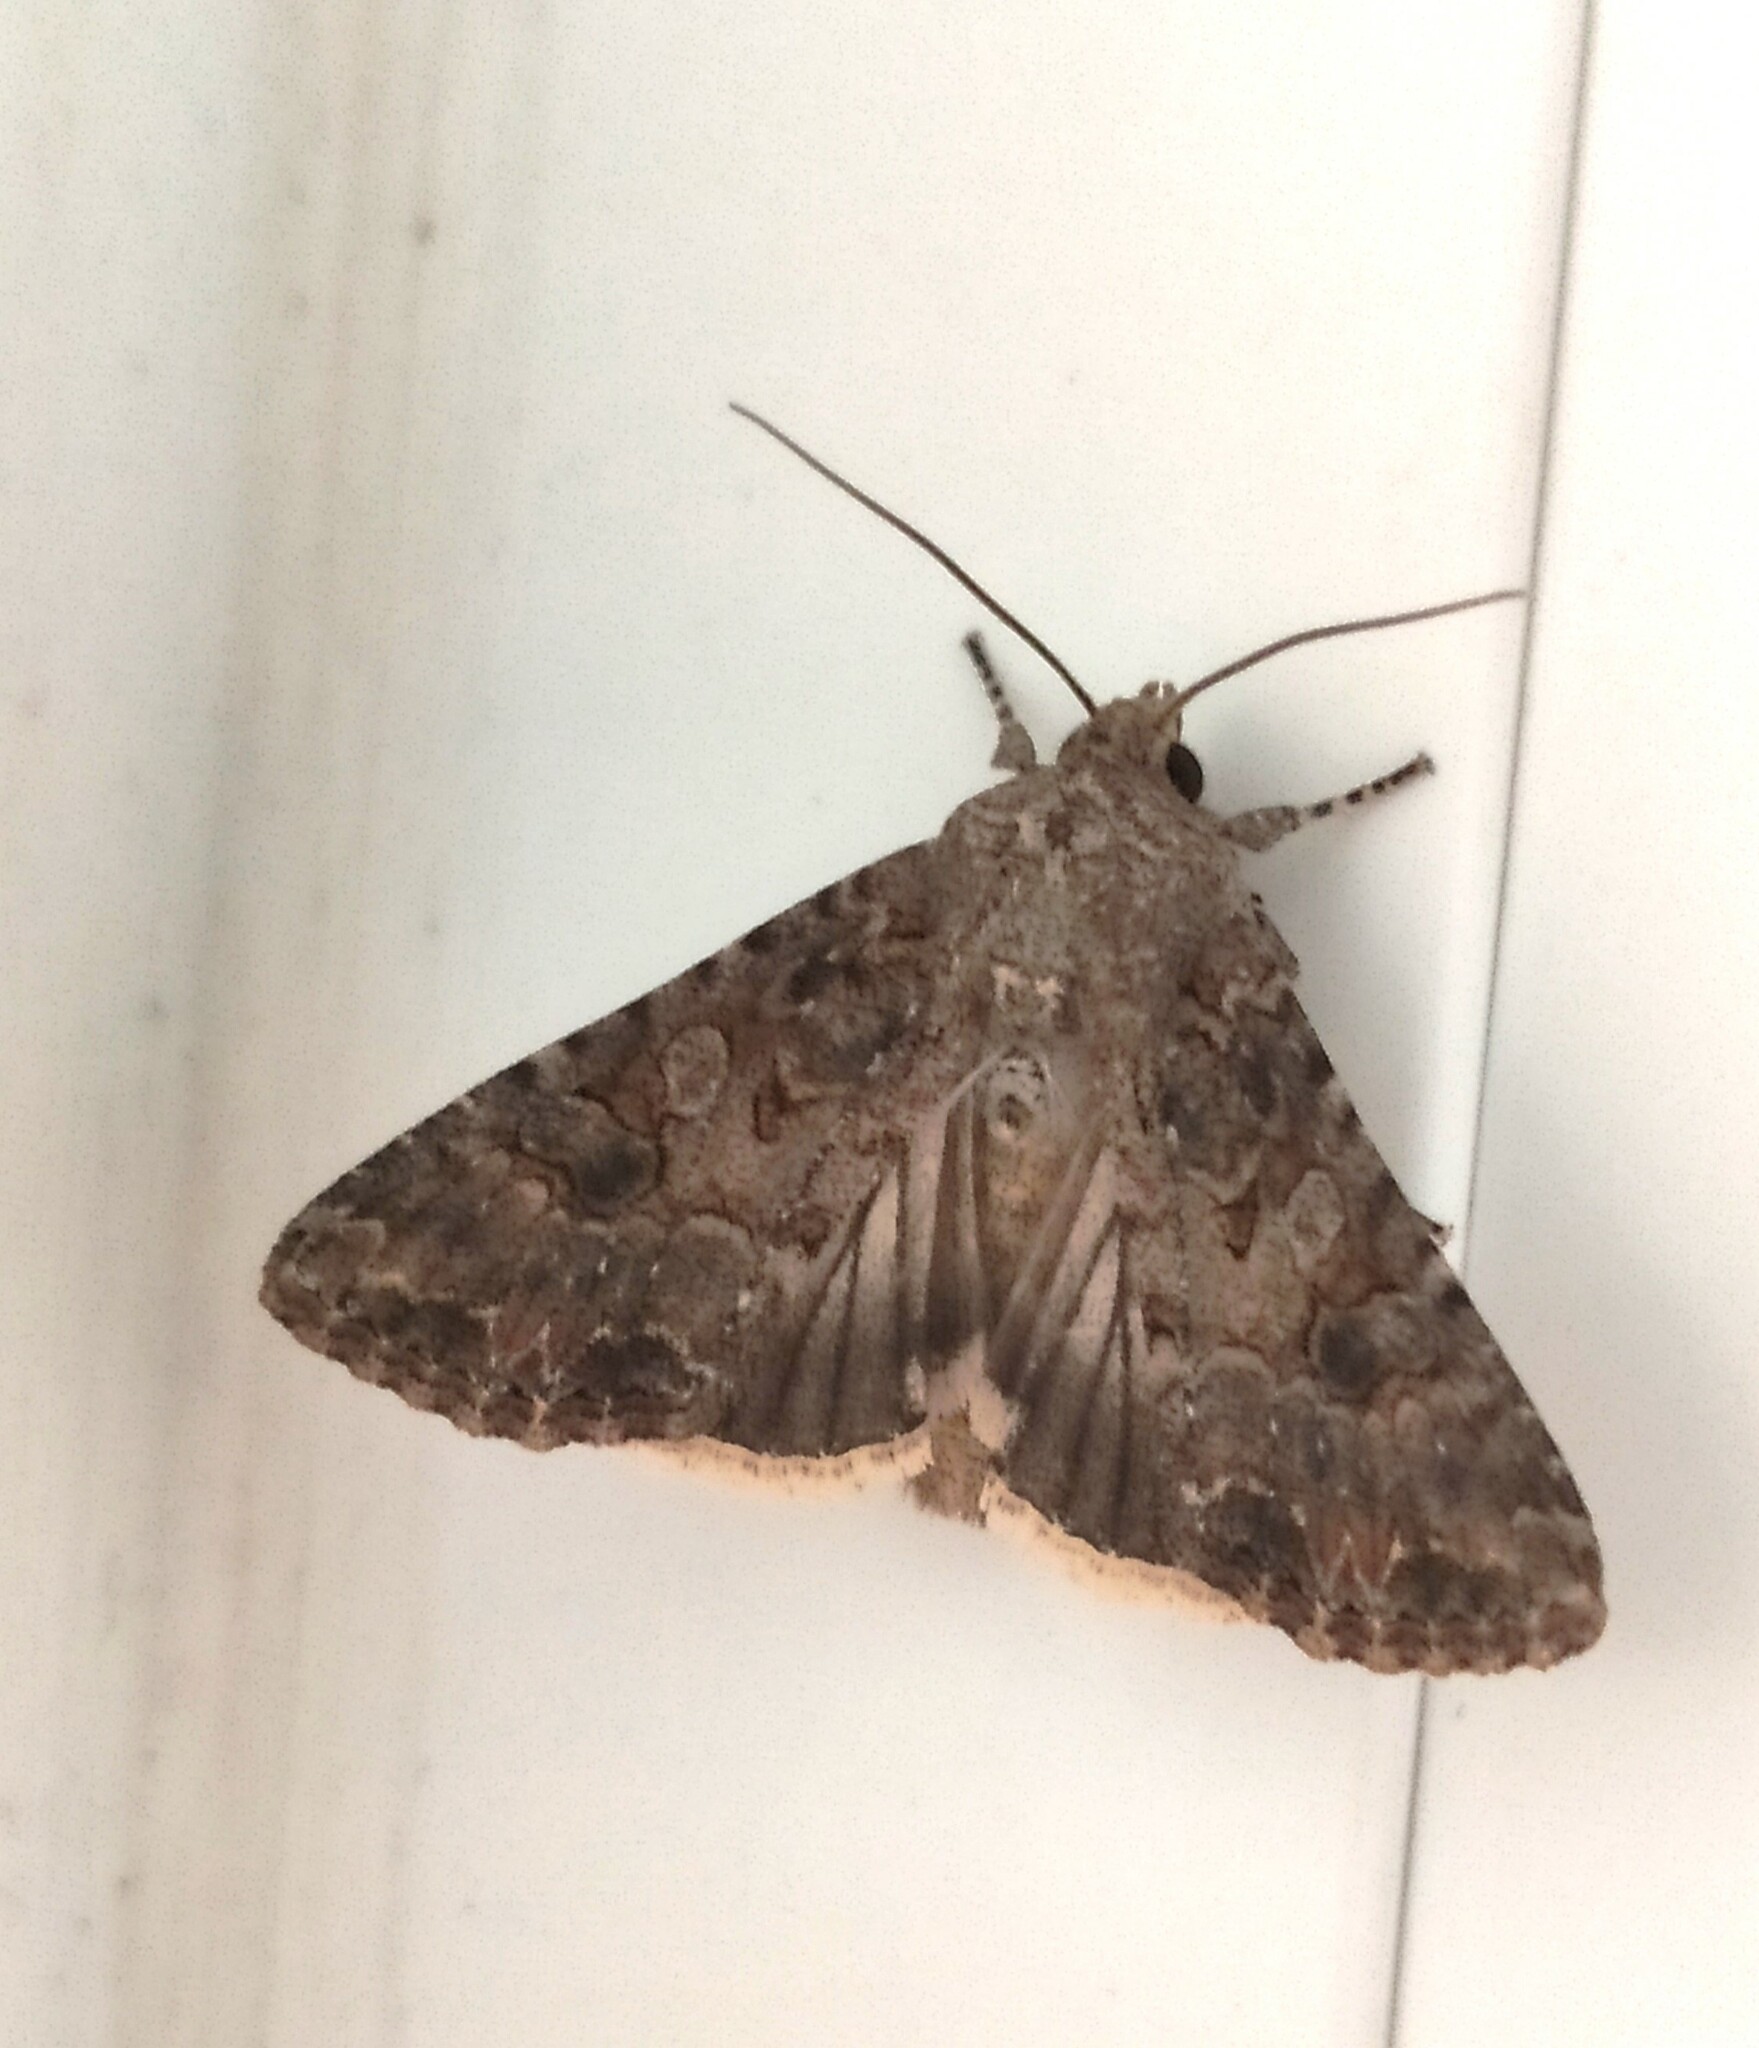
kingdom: Animalia
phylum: Arthropoda
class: Insecta
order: Lepidoptera
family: Noctuidae
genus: Anarta
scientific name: Anarta trifolii
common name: Clover cutworm moth
